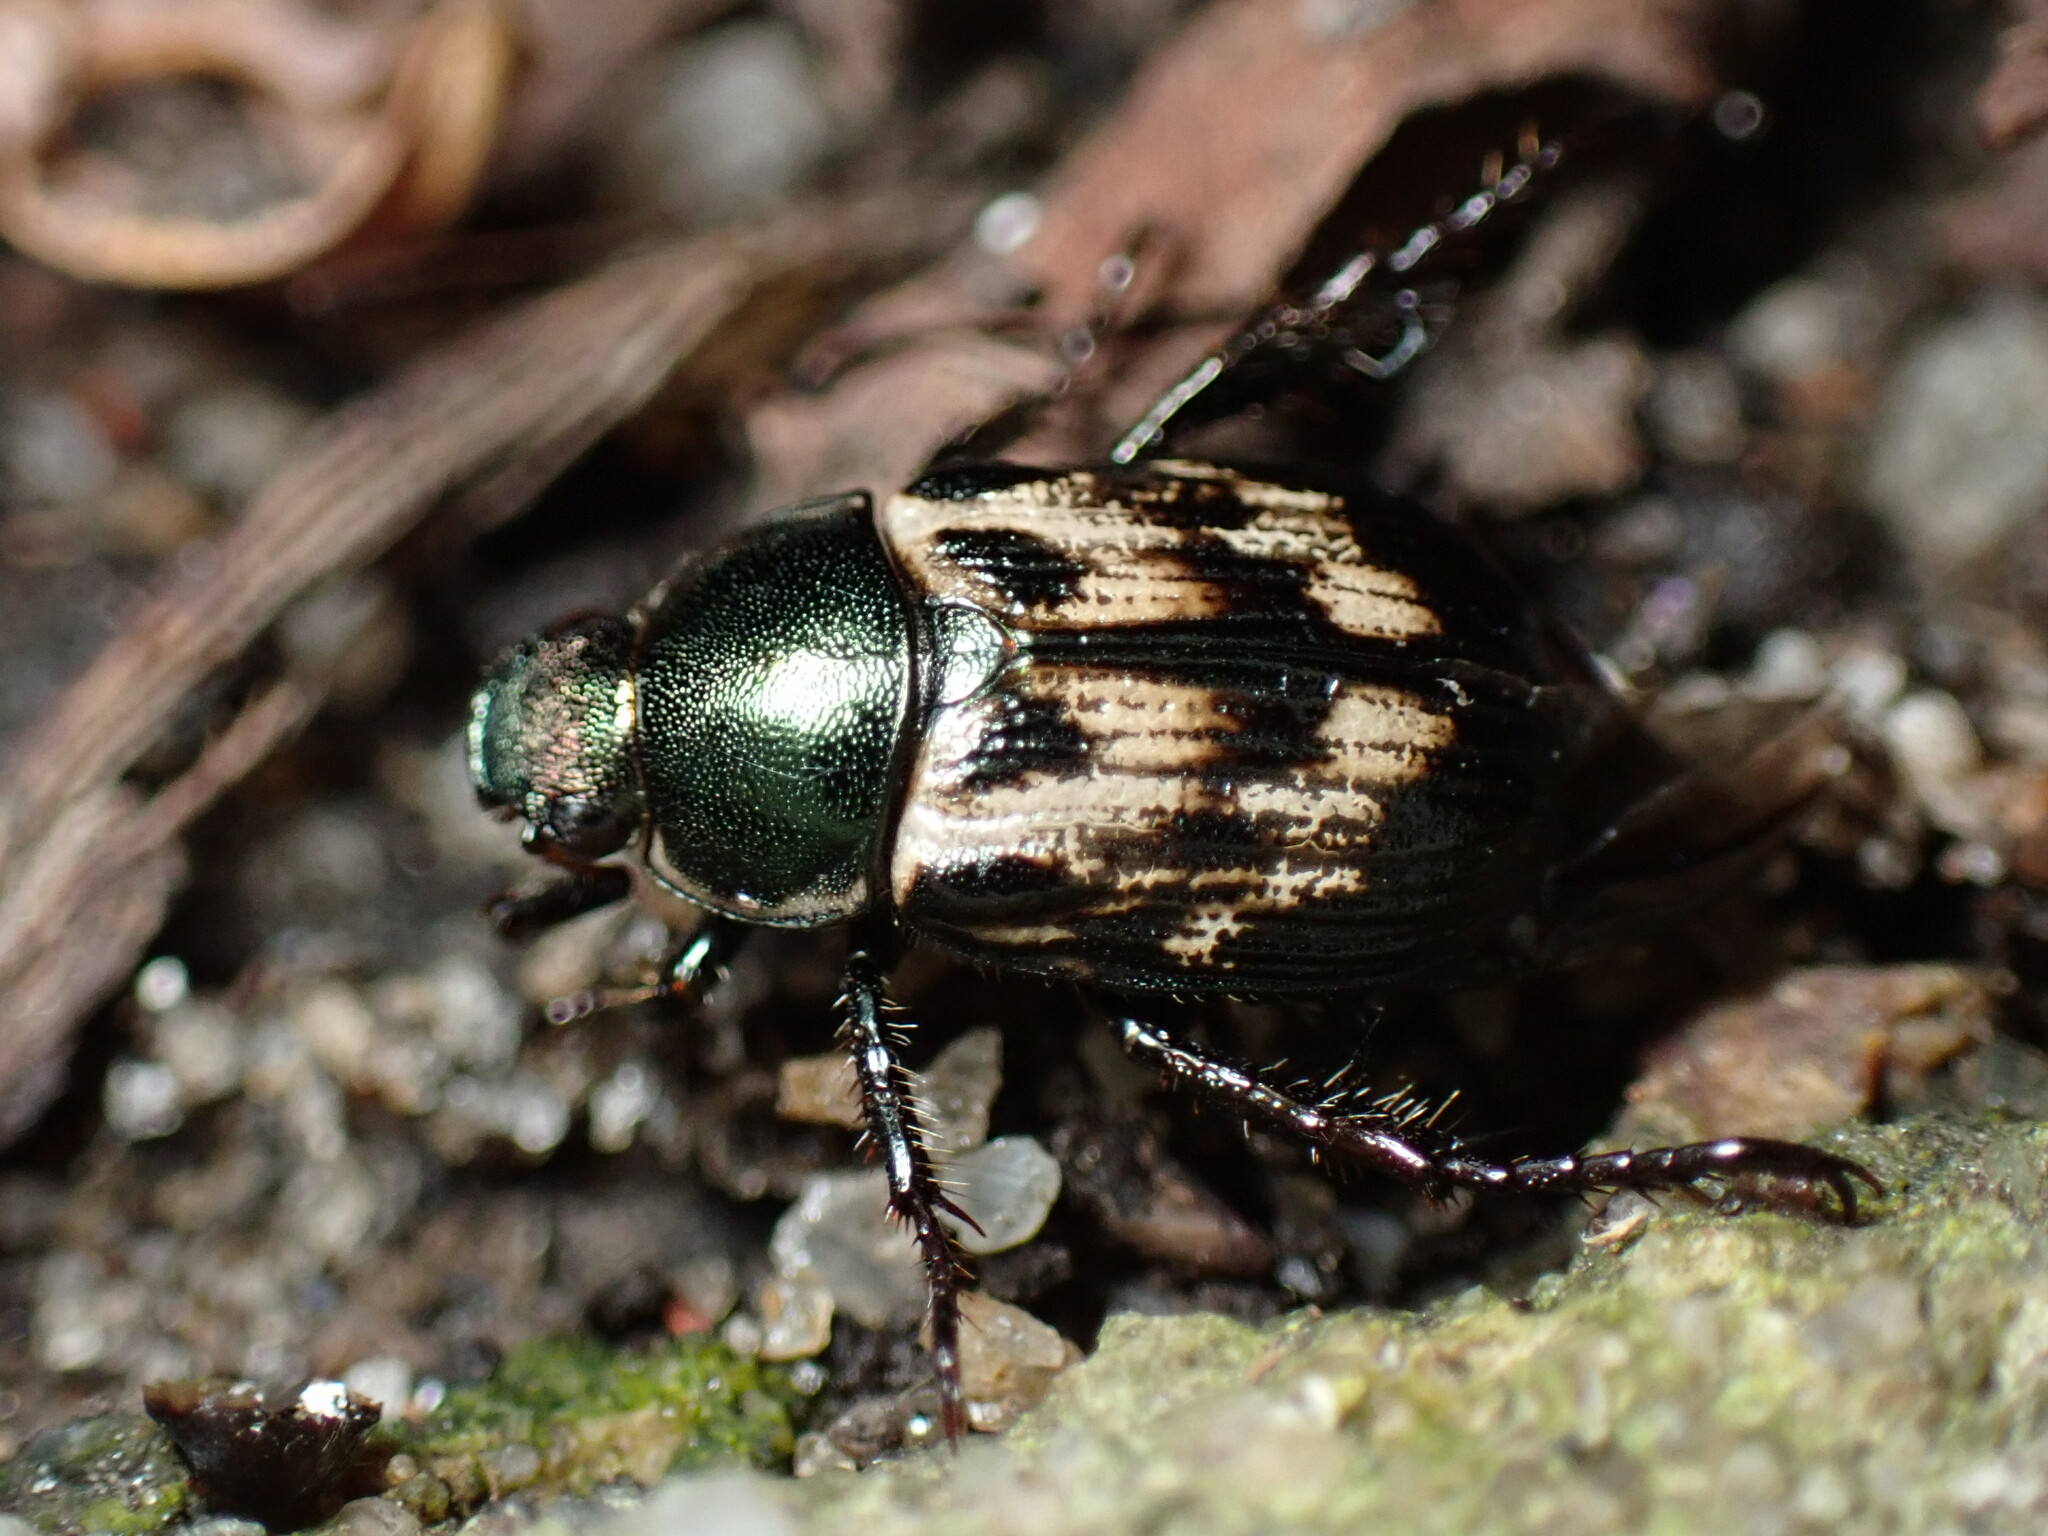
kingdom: Animalia
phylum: Arthropoda
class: Insecta
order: Coleoptera
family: Scarabaeidae
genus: Exomala
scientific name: Exomala orientalis
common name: Oriental beetle
